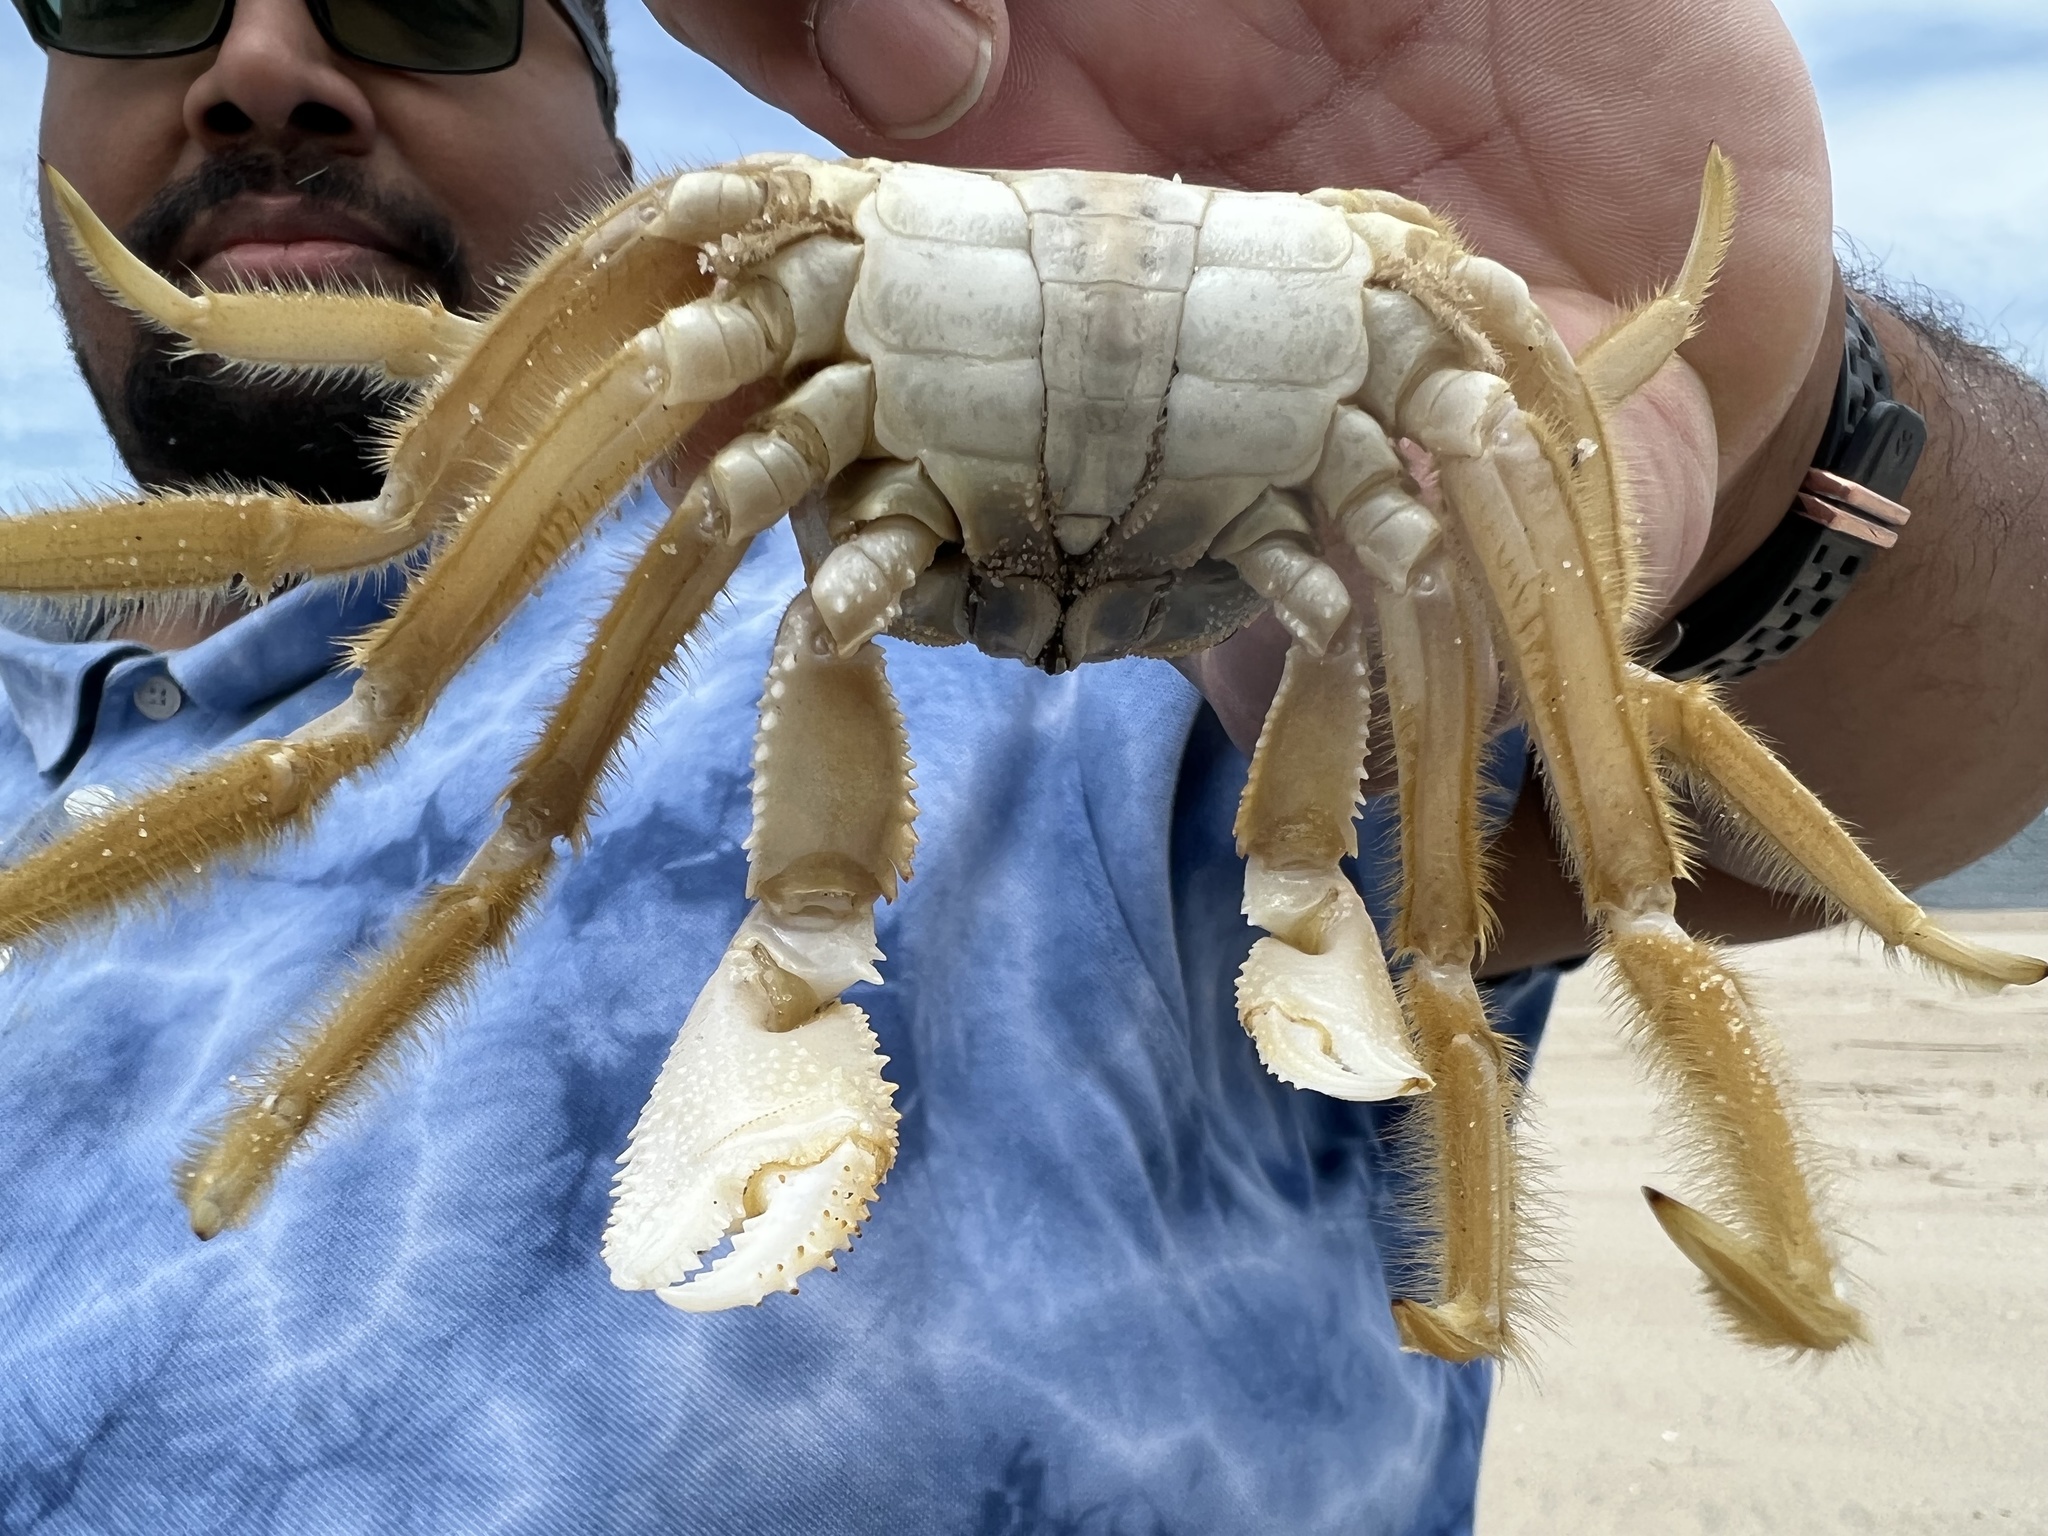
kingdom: Animalia
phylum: Arthropoda
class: Malacostraca
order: Decapoda
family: Ocypodidae
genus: Ocypode
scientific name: Ocypode quadrata
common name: Ghost crab
